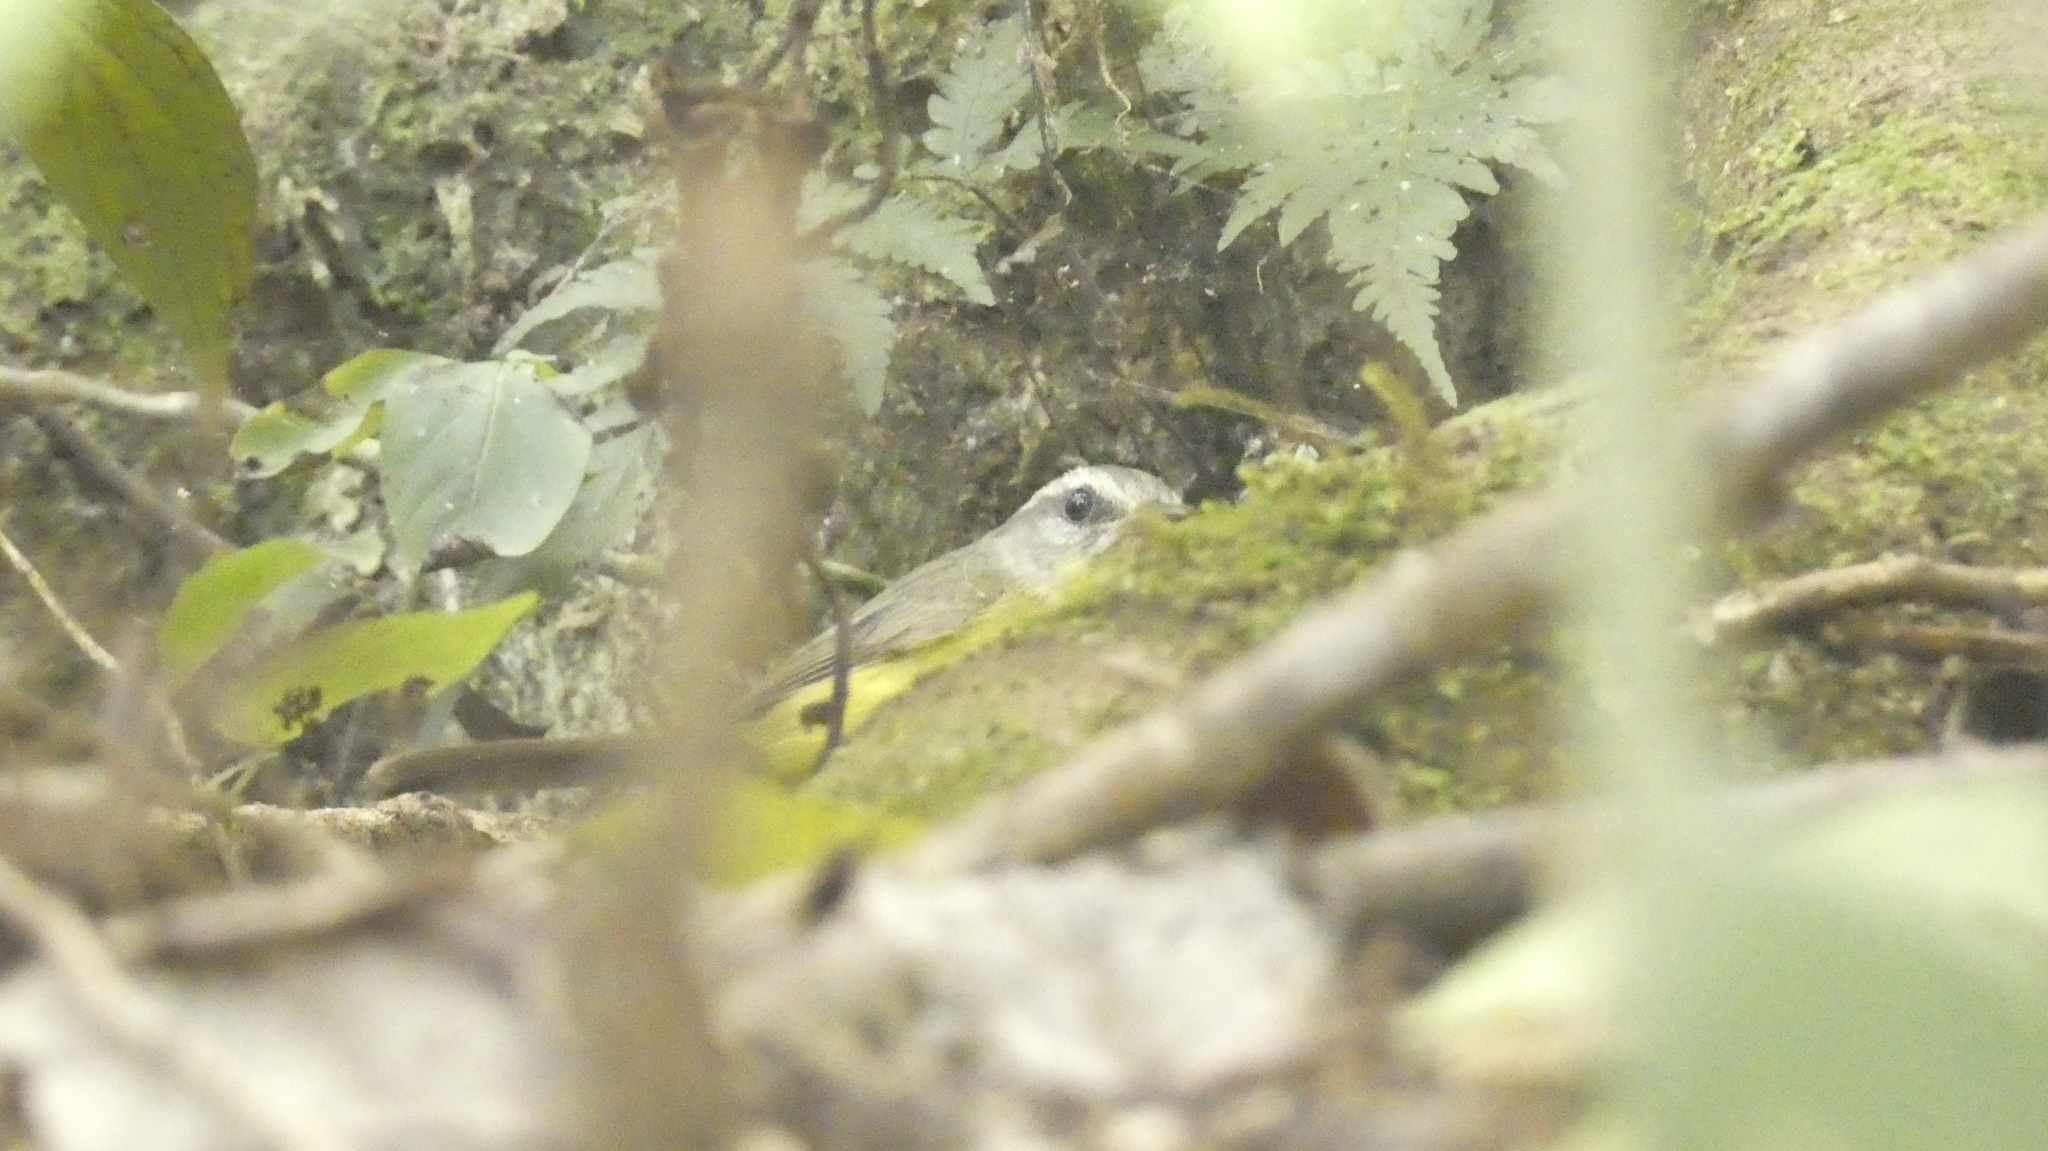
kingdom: Animalia
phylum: Chordata
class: Aves
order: Passeriformes
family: Parulidae
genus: Basileuterus
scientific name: Basileuterus culicivorus
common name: Golden-crowned warbler
